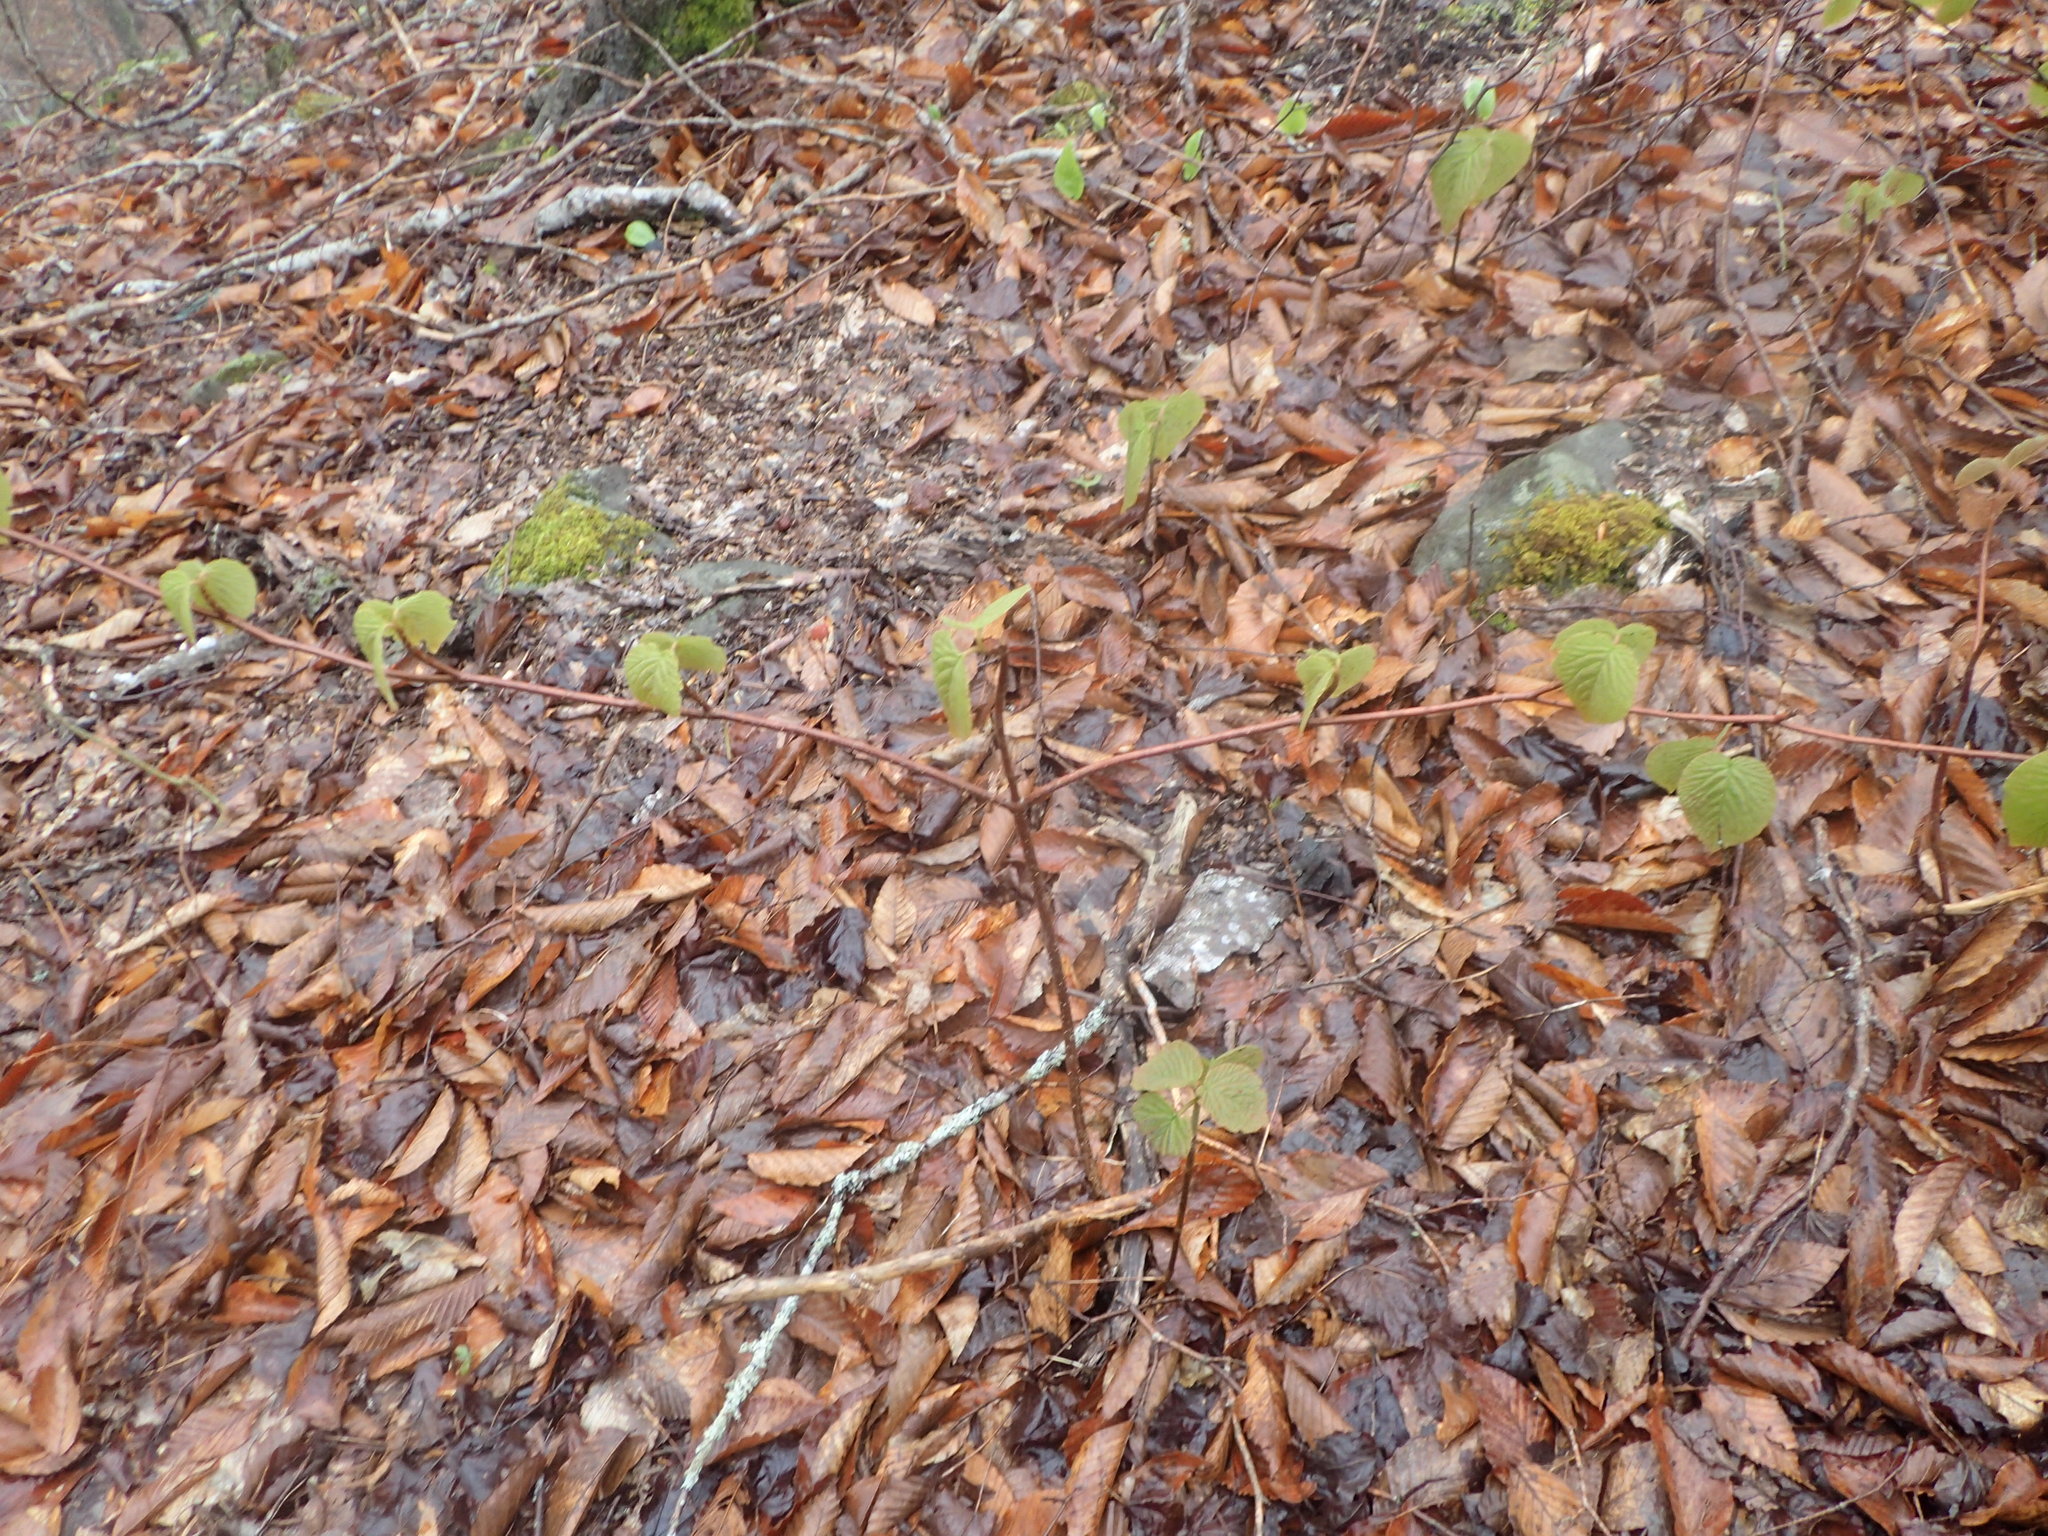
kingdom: Plantae
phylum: Tracheophyta
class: Magnoliopsida
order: Dipsacales
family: Viburnaceae
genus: Viburnum
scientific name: Viburnum lantanoides
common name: Hobblebush
